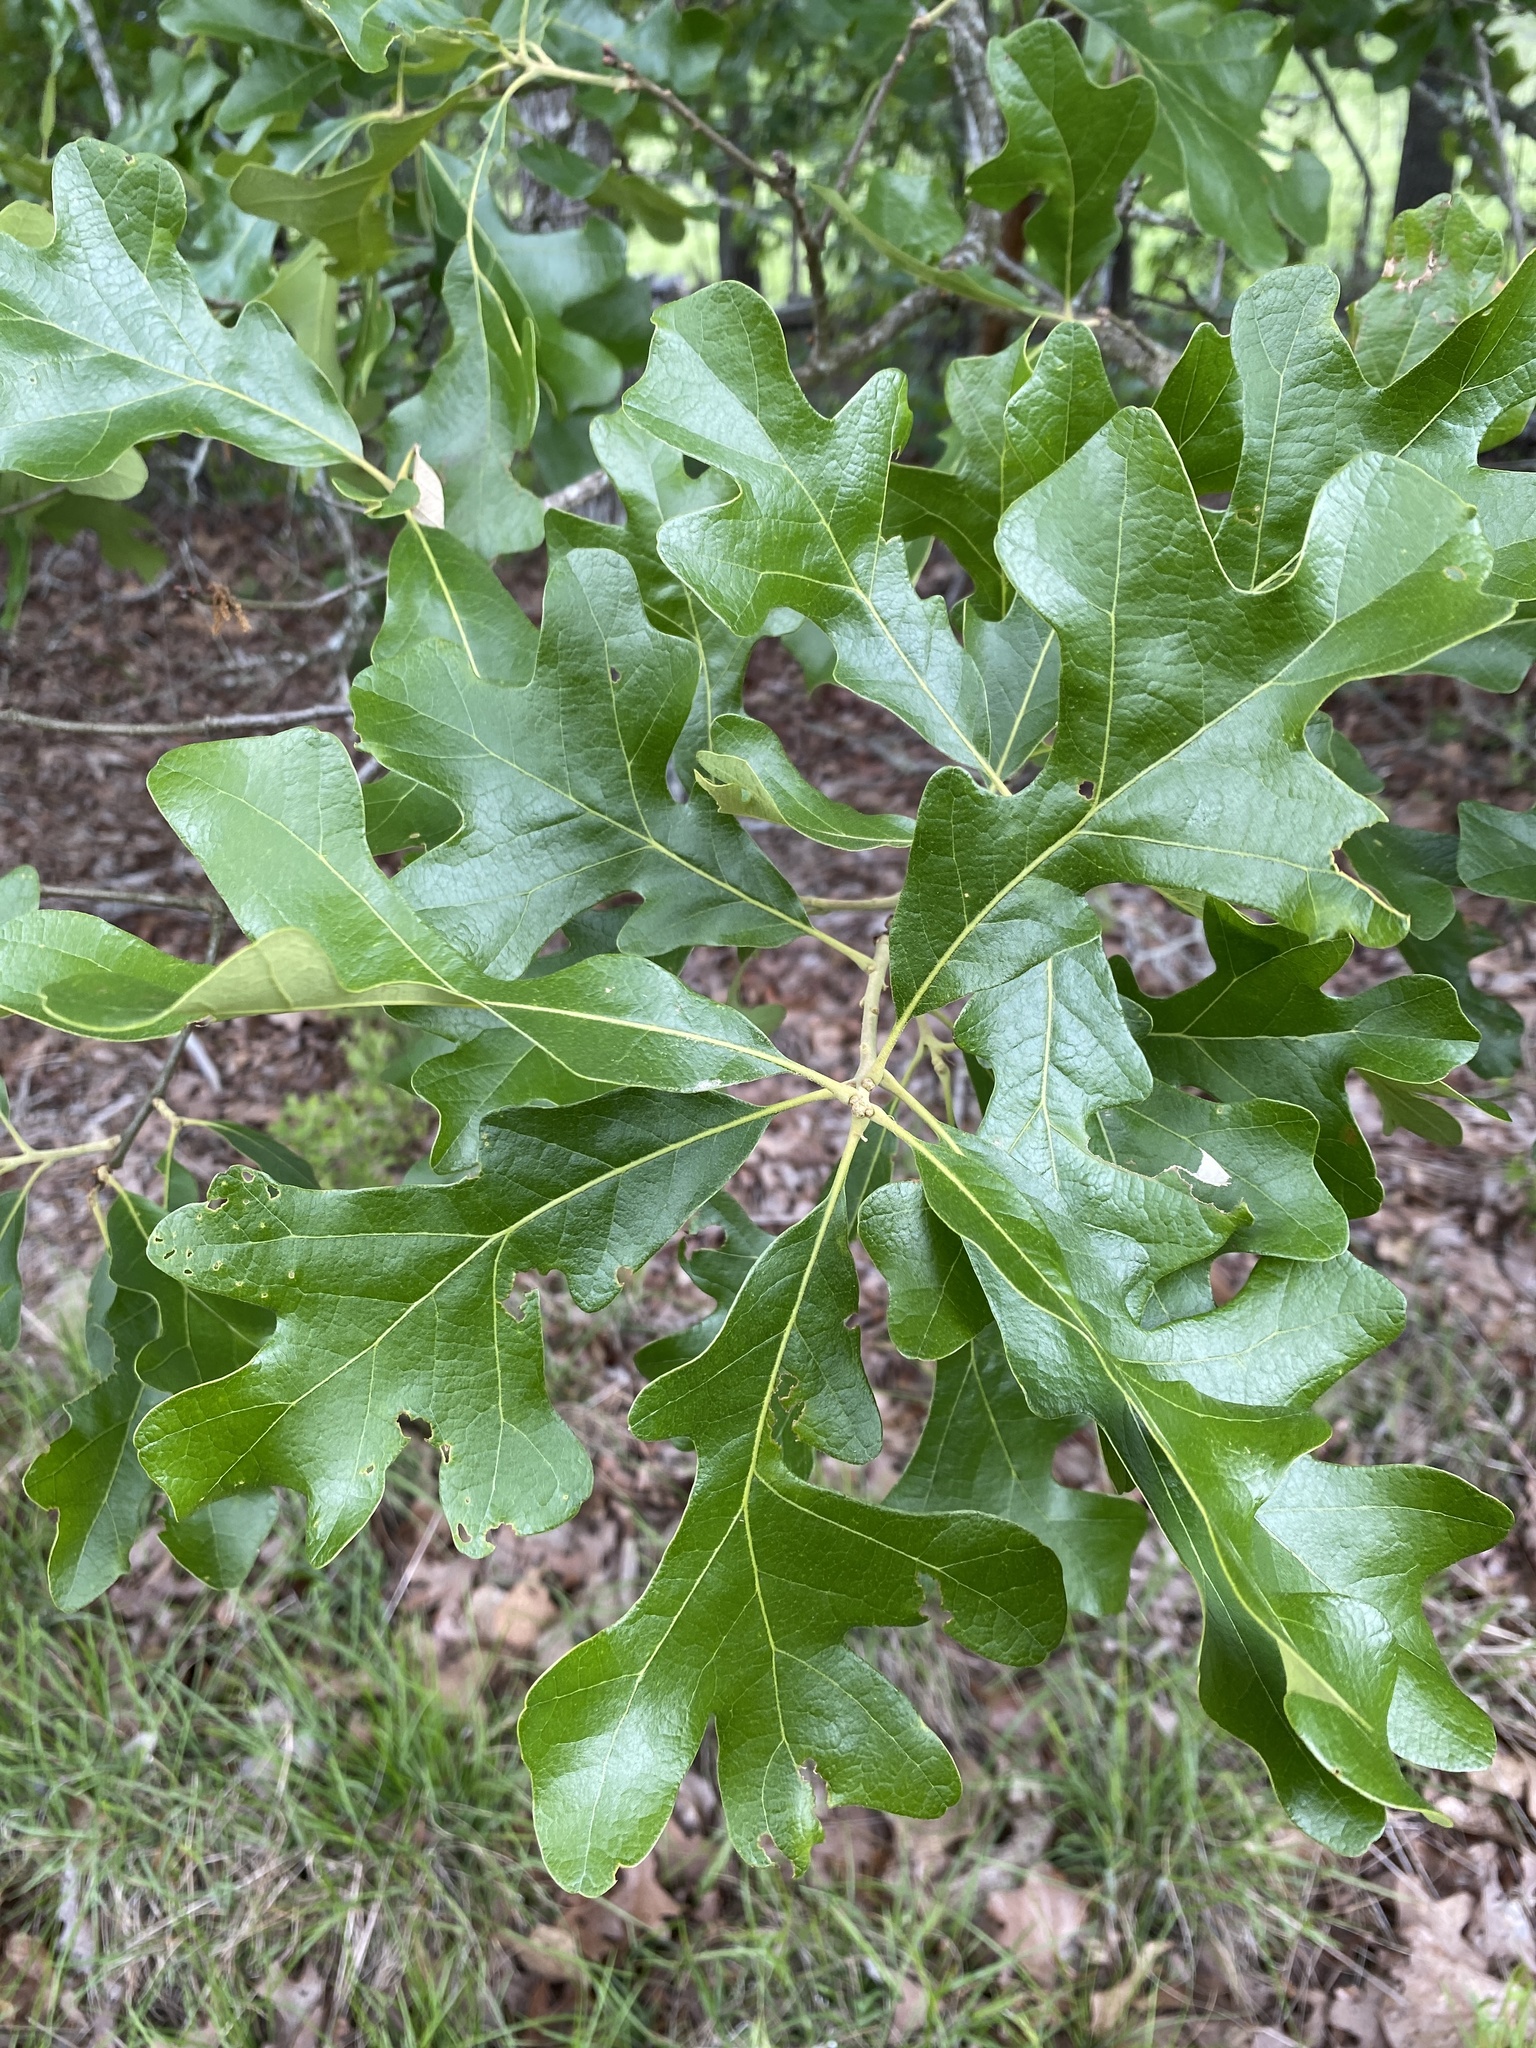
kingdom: Plantae
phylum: Tracheophyta
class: Magnoliopsida
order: Fagales
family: Fagaceae
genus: Quercus
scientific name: Quercus stellata
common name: Post oak
